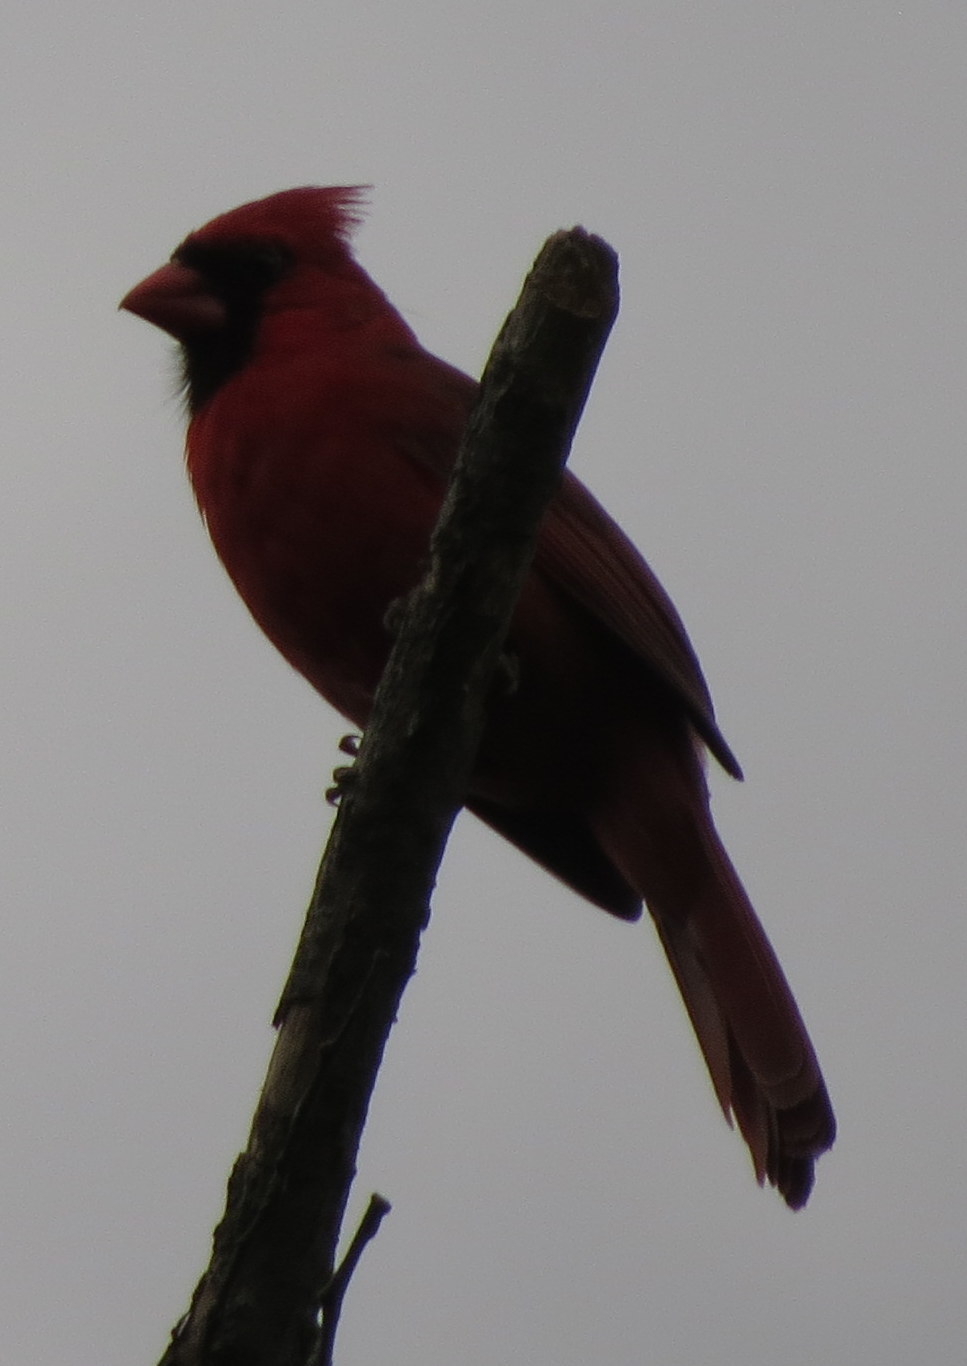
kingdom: Animalia
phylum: Chordata
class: Aves
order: Passeriformes
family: Cardinalidae
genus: Cardinalis
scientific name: Cardinalis cardinalis
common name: Northern cardinal
